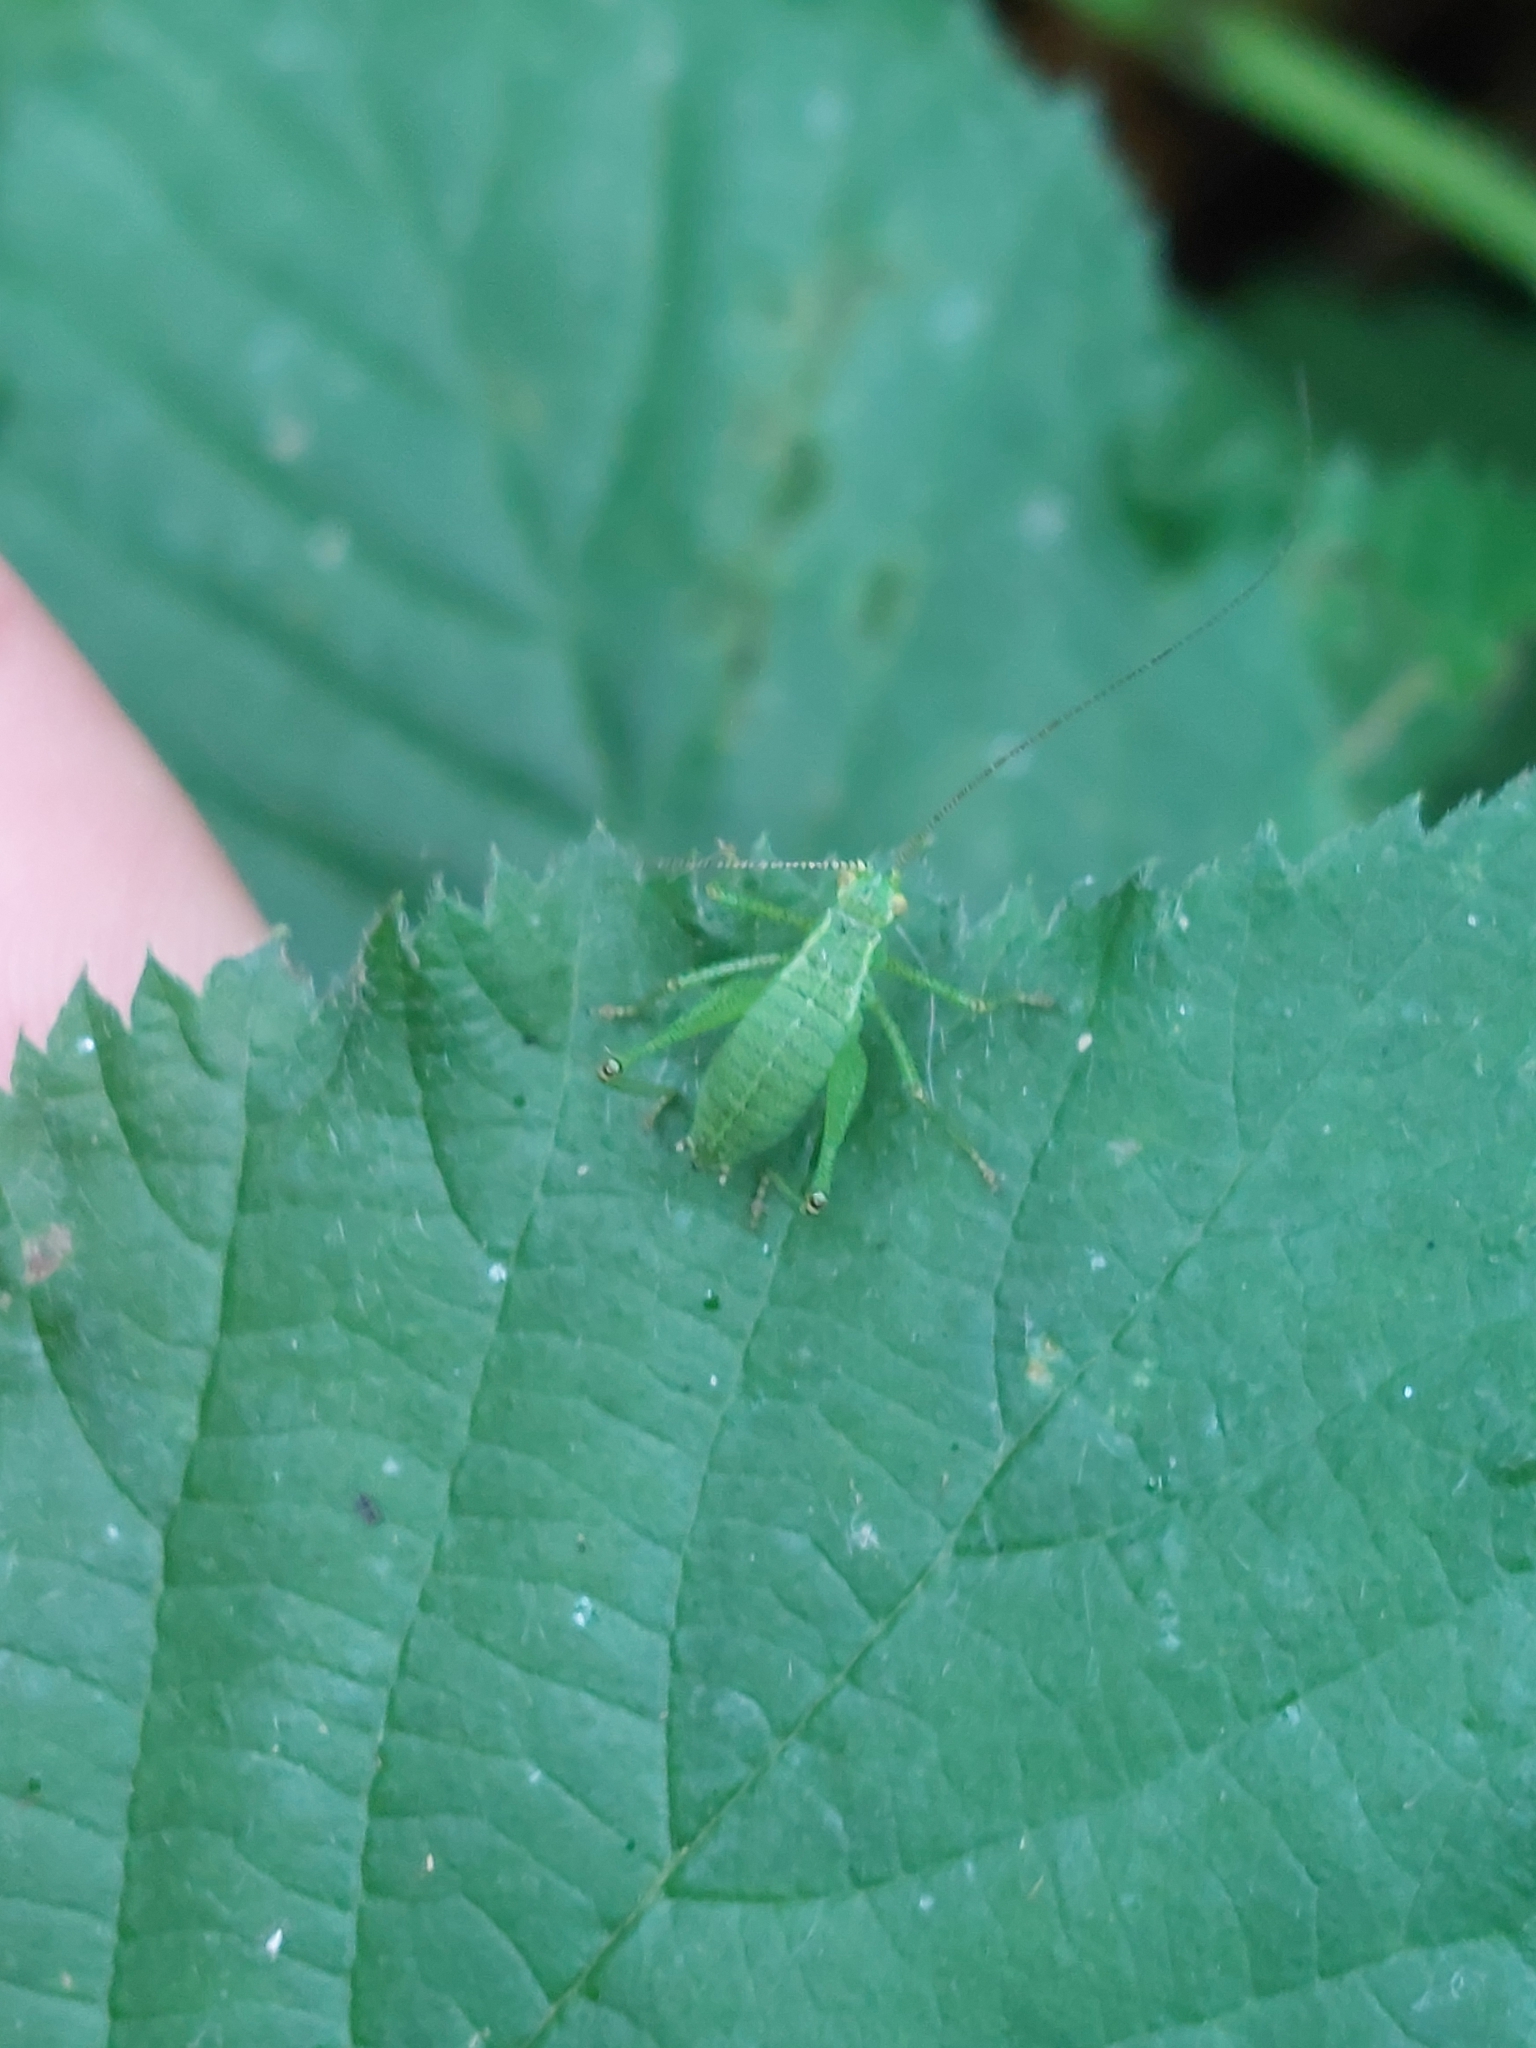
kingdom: Animalia
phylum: Arthropoda
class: Insecta
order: Orthoptera
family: Tettigoniidae
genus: Leptophyes
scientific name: Leptophyes punctatissima
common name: Speckled bush-cricket
